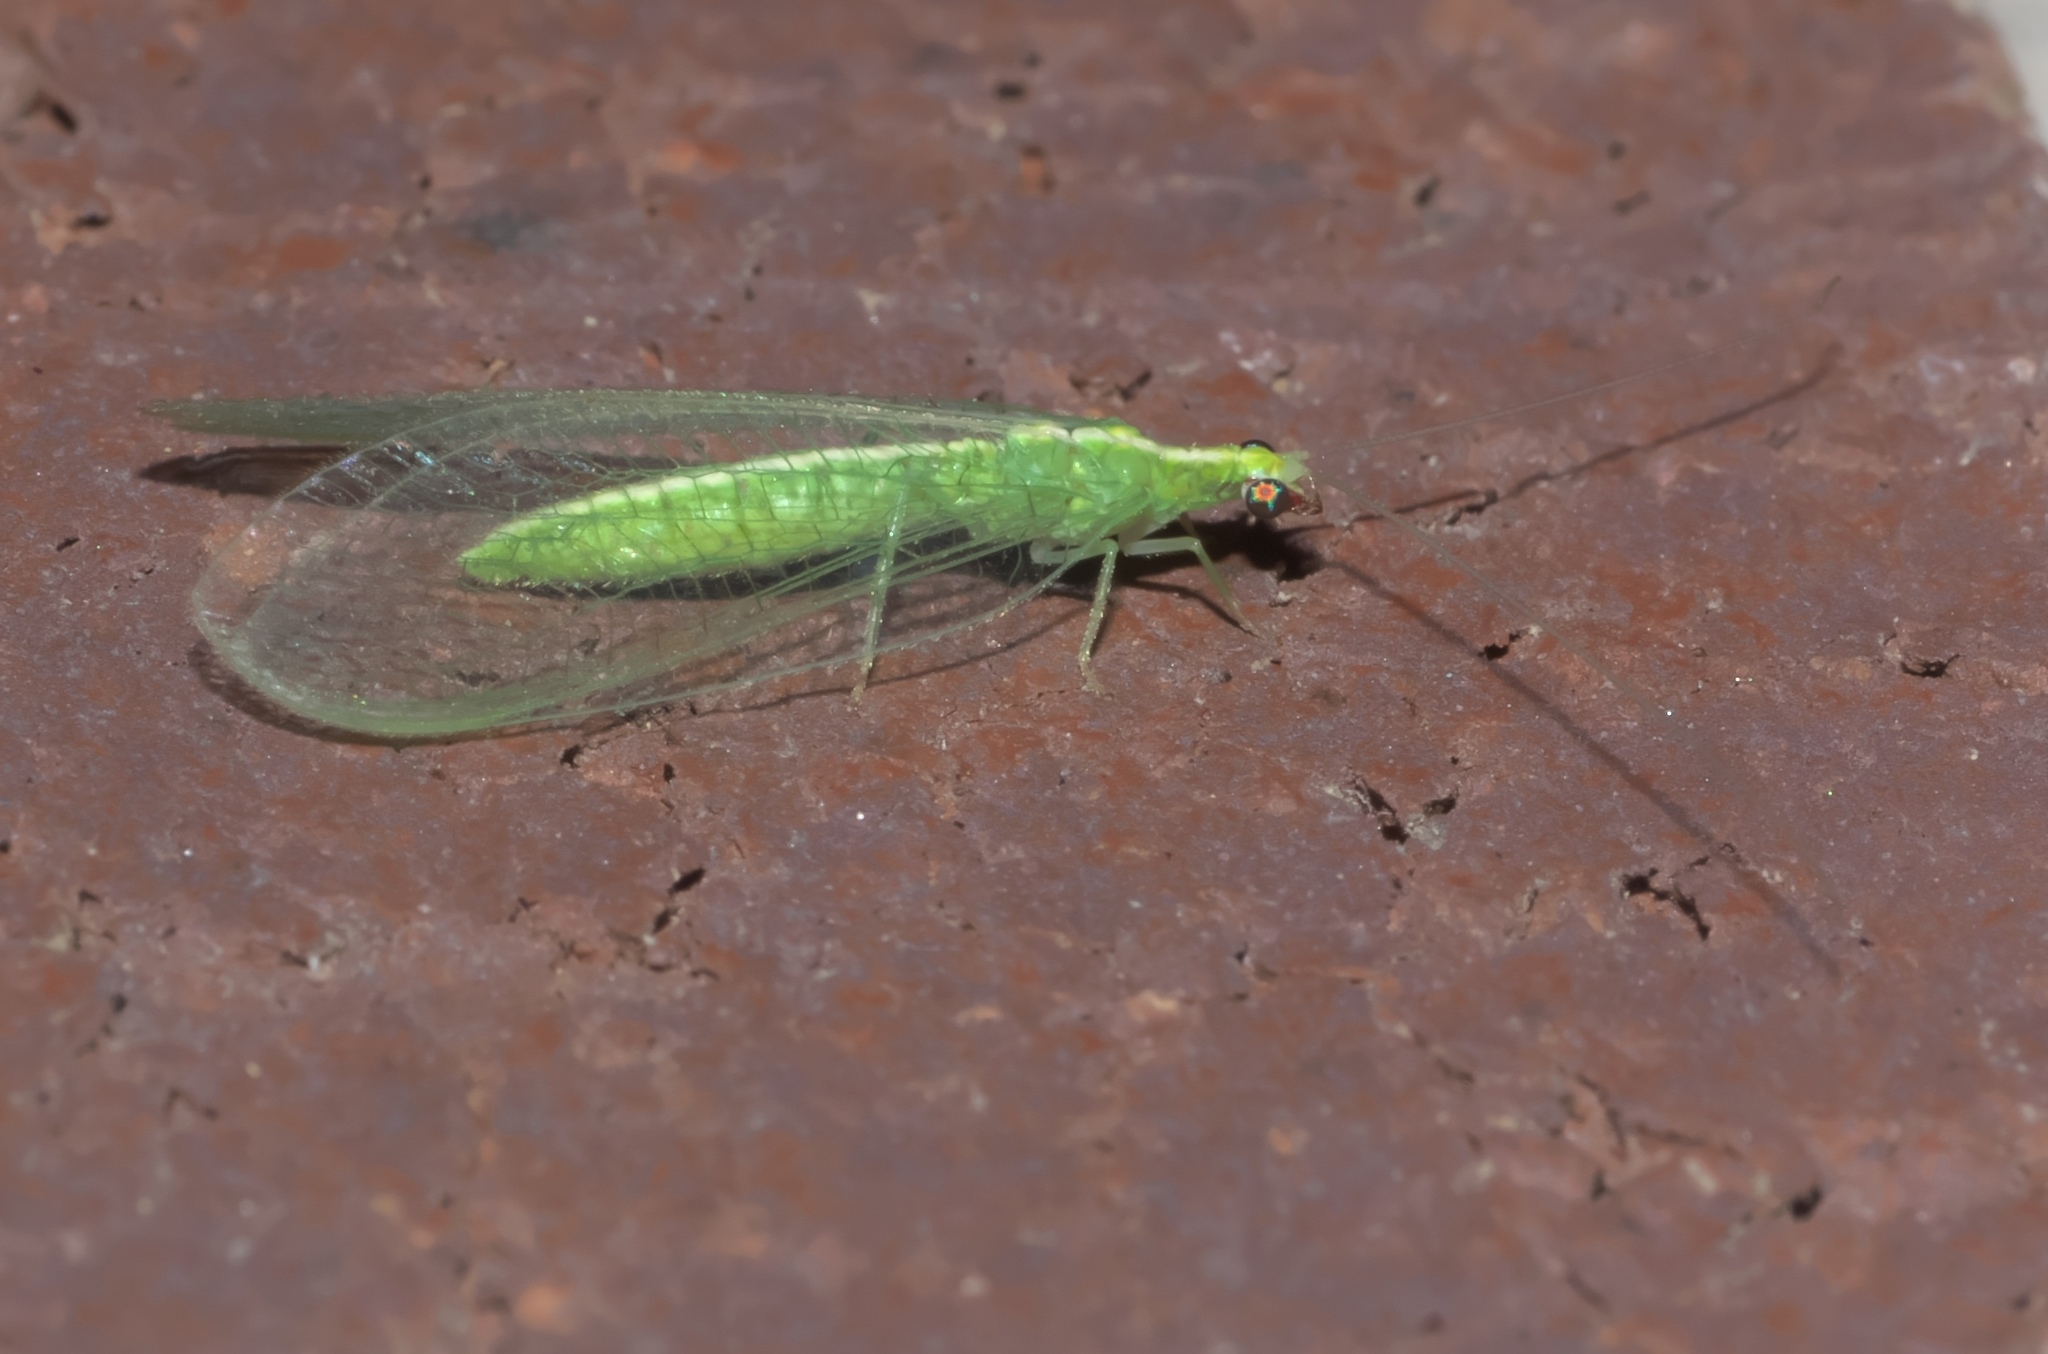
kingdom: Animalia
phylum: Arthropoda
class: Insecta
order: Neuroptera
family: Chrysopidae
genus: Chrysoperla
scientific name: Chrysoperla rufilabris
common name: Red-lipped green lacewing
